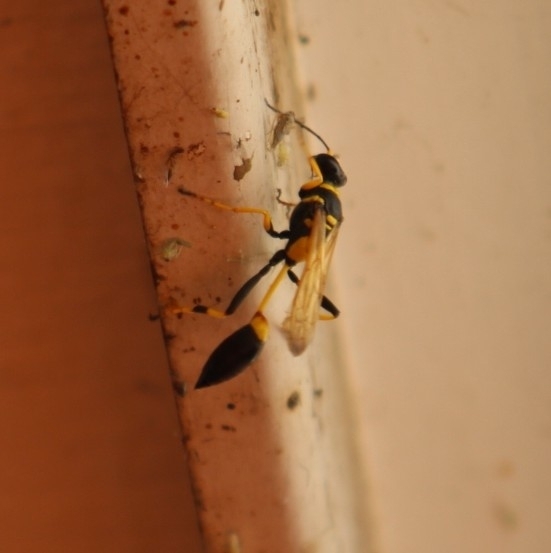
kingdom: Animalia
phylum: Arthropoda
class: Insecta
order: Hymenoptera
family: Sphecidae
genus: Sceliphron
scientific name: Sceliphron caementarium
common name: Mud dauber
